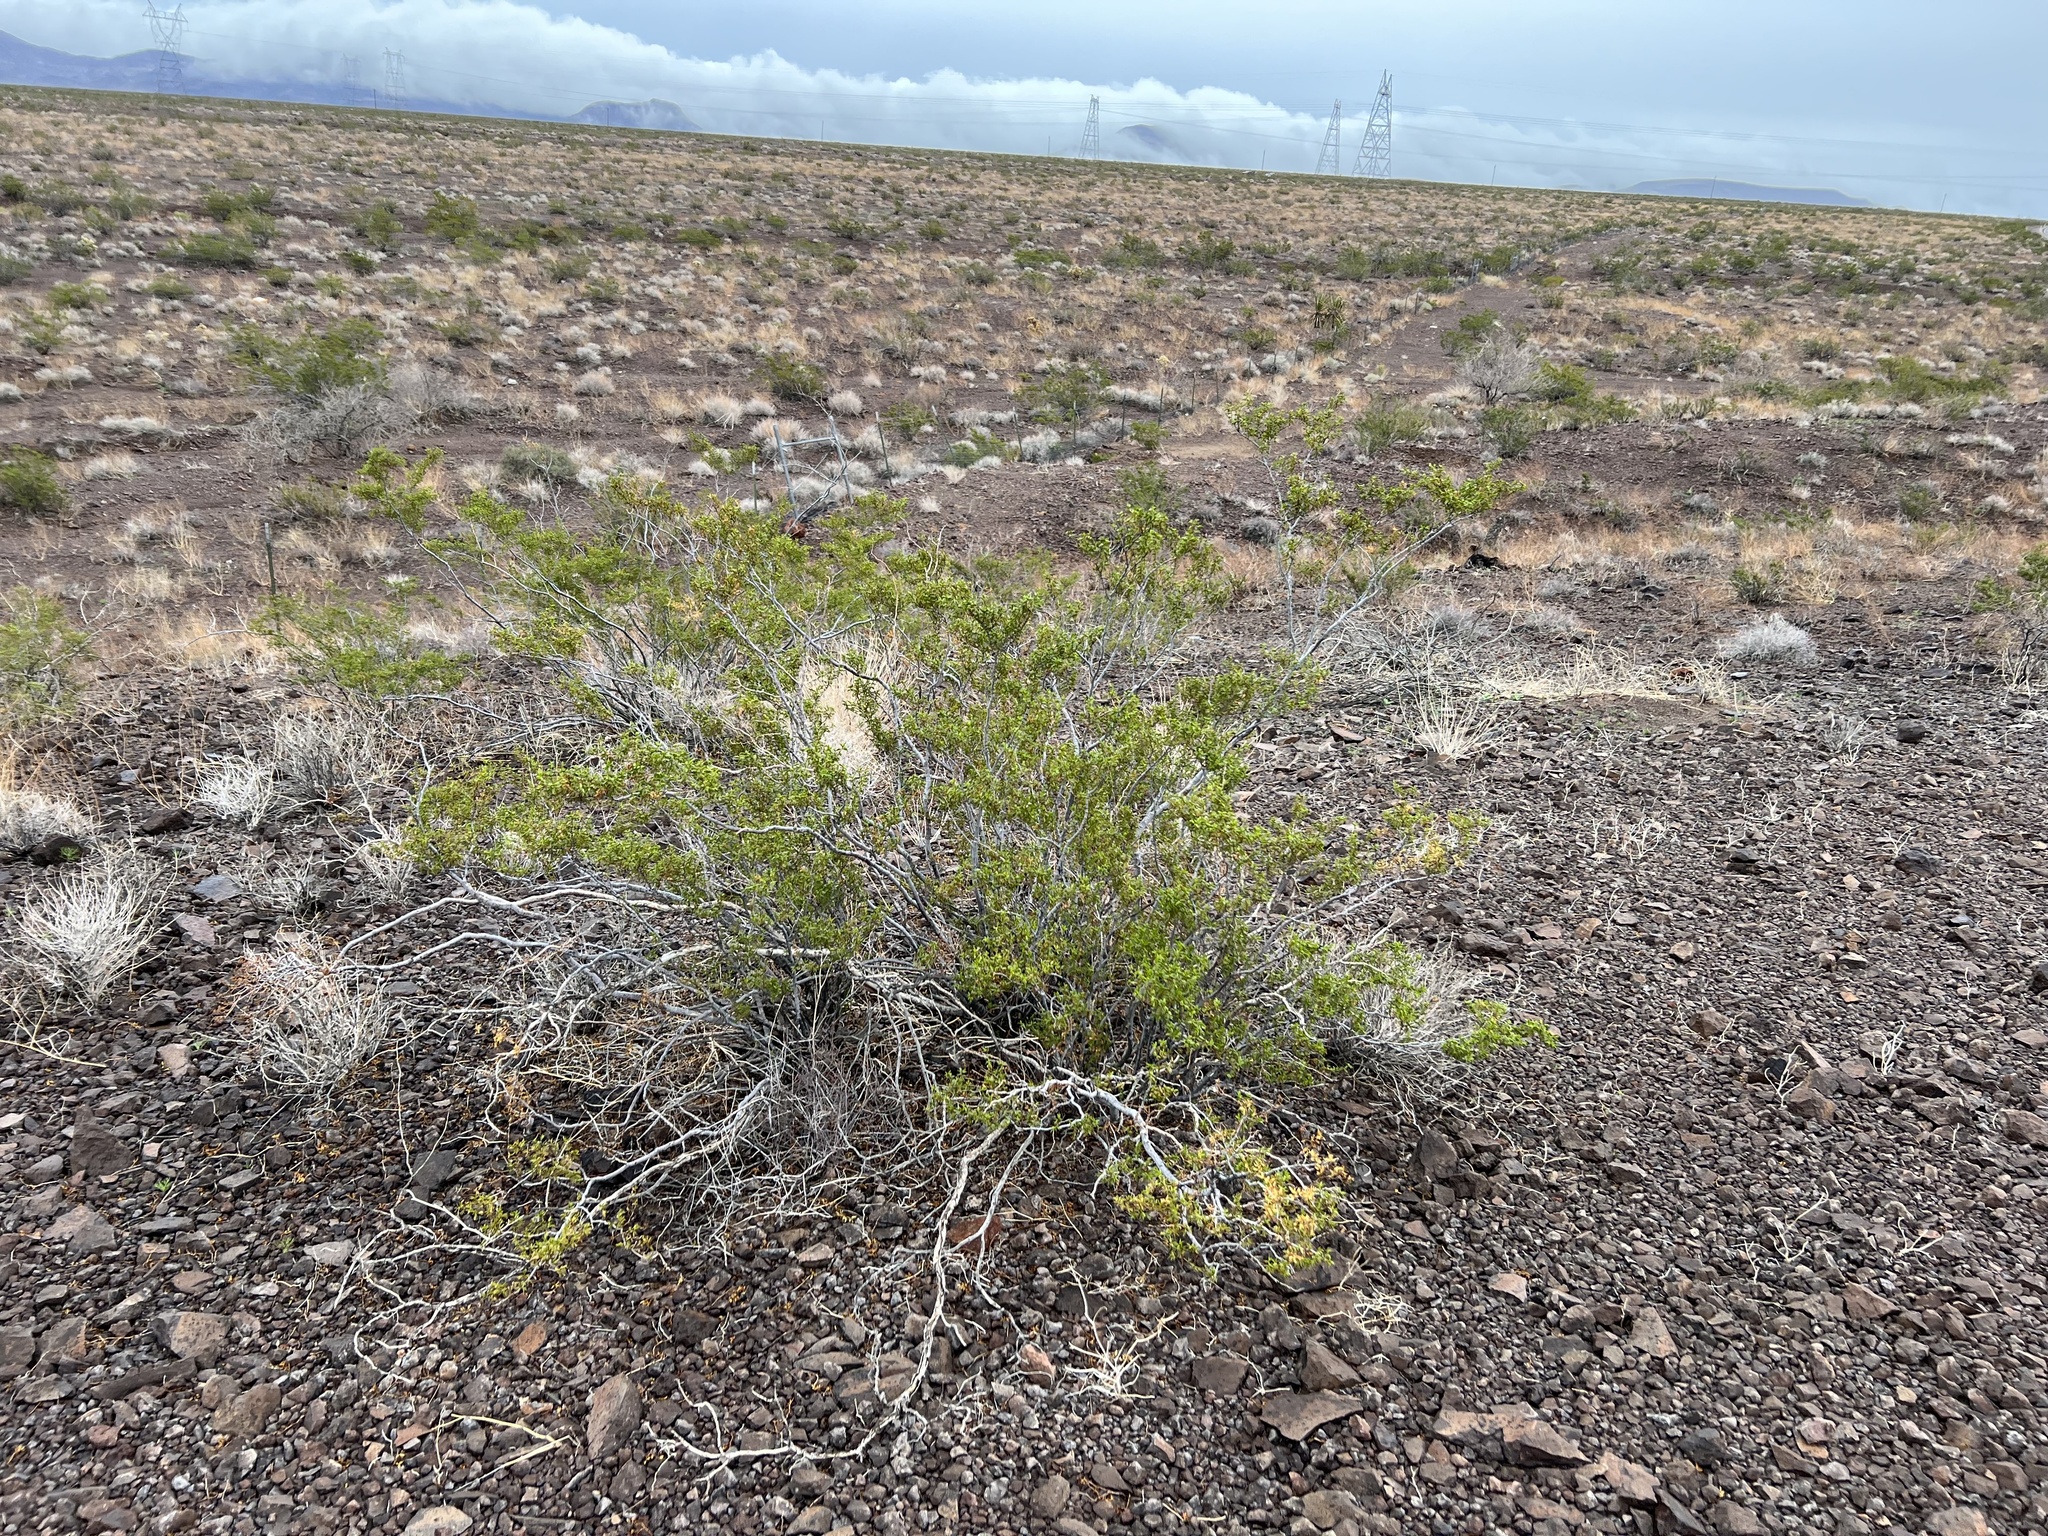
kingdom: Plantae
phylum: Tracheophyta
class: Magnoliopsida
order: Zygophyllales
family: Zygophyllaceae
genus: Larrea
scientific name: Larrea tridentata
